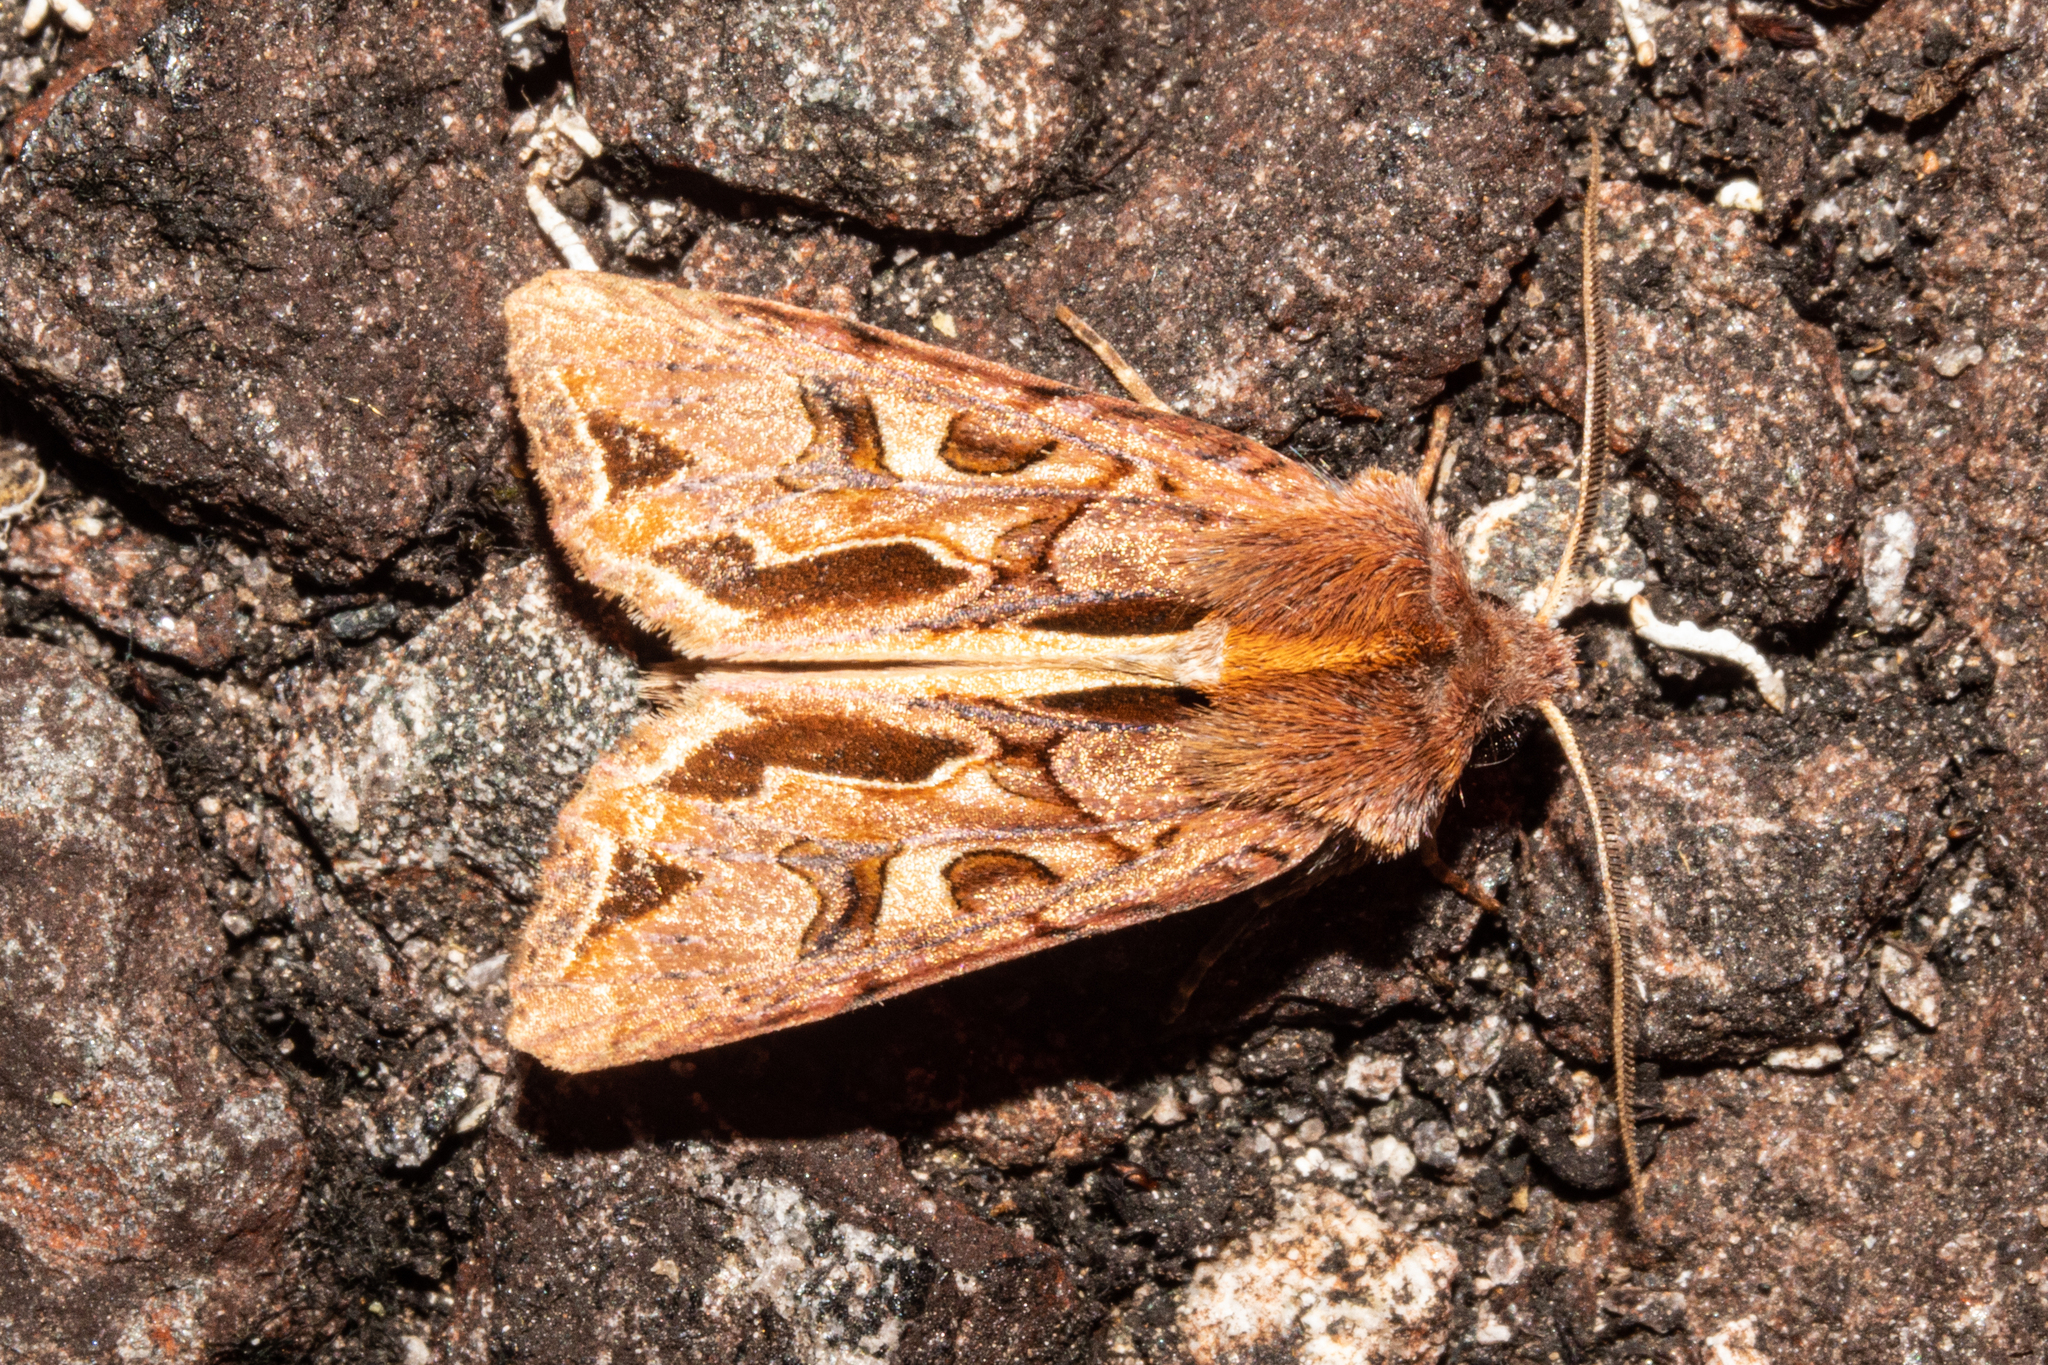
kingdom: Animalia
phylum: Arthropoda
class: Insecta
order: Lepidoptera
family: Noctuidae
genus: Ichneutica
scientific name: Ichneutica
